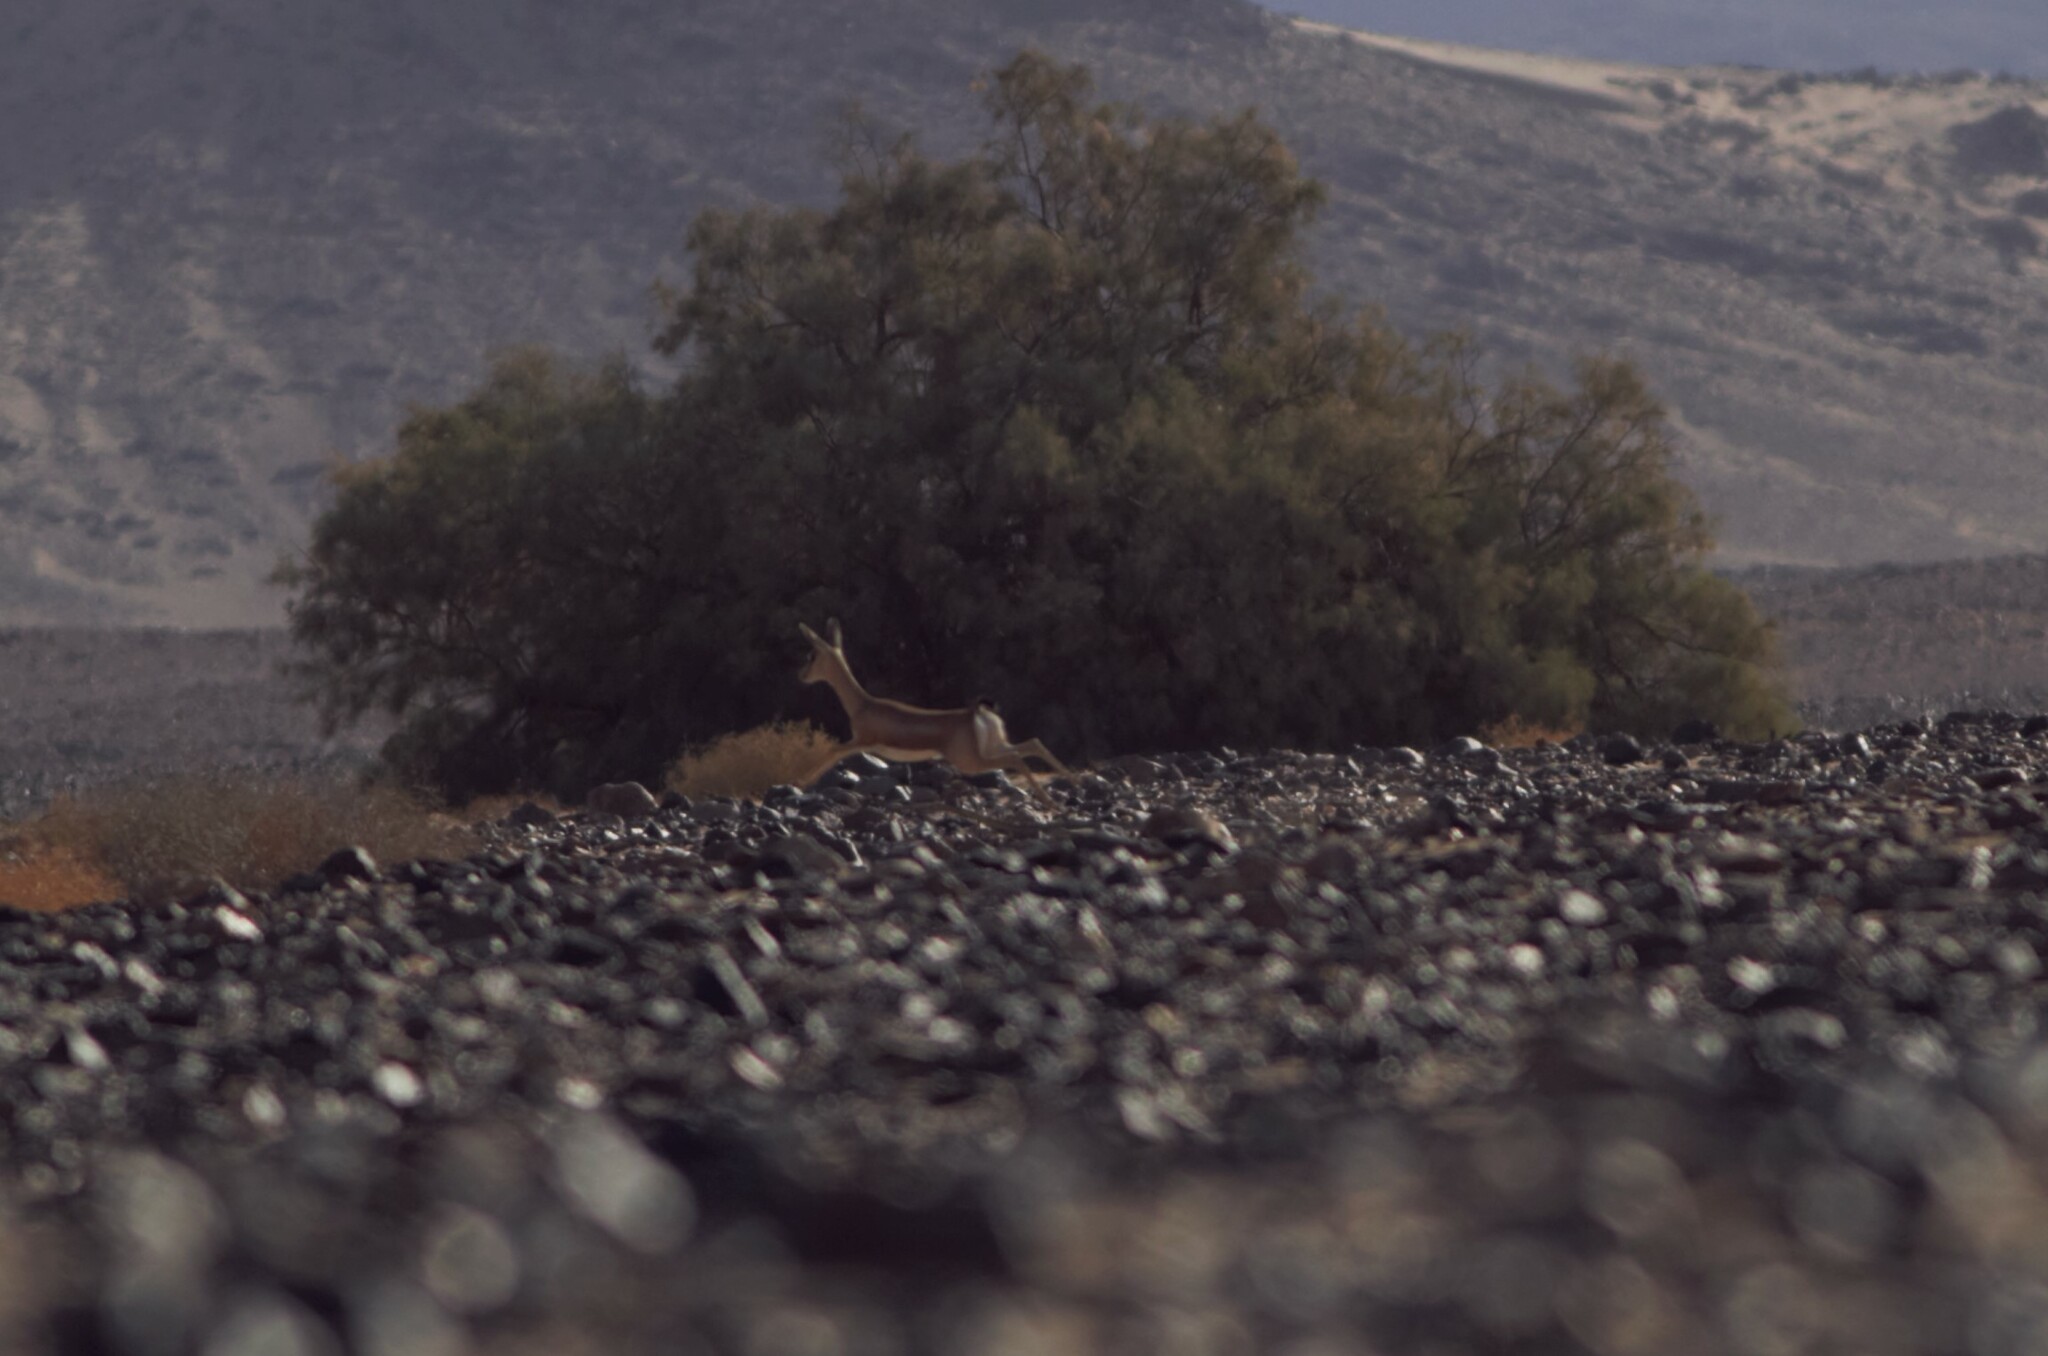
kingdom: Animalia
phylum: Chordata
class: Mammalia
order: Artiodactyla
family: Bovidae
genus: Gazella
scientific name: Gazella dorcas
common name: Dorcas gazelle
